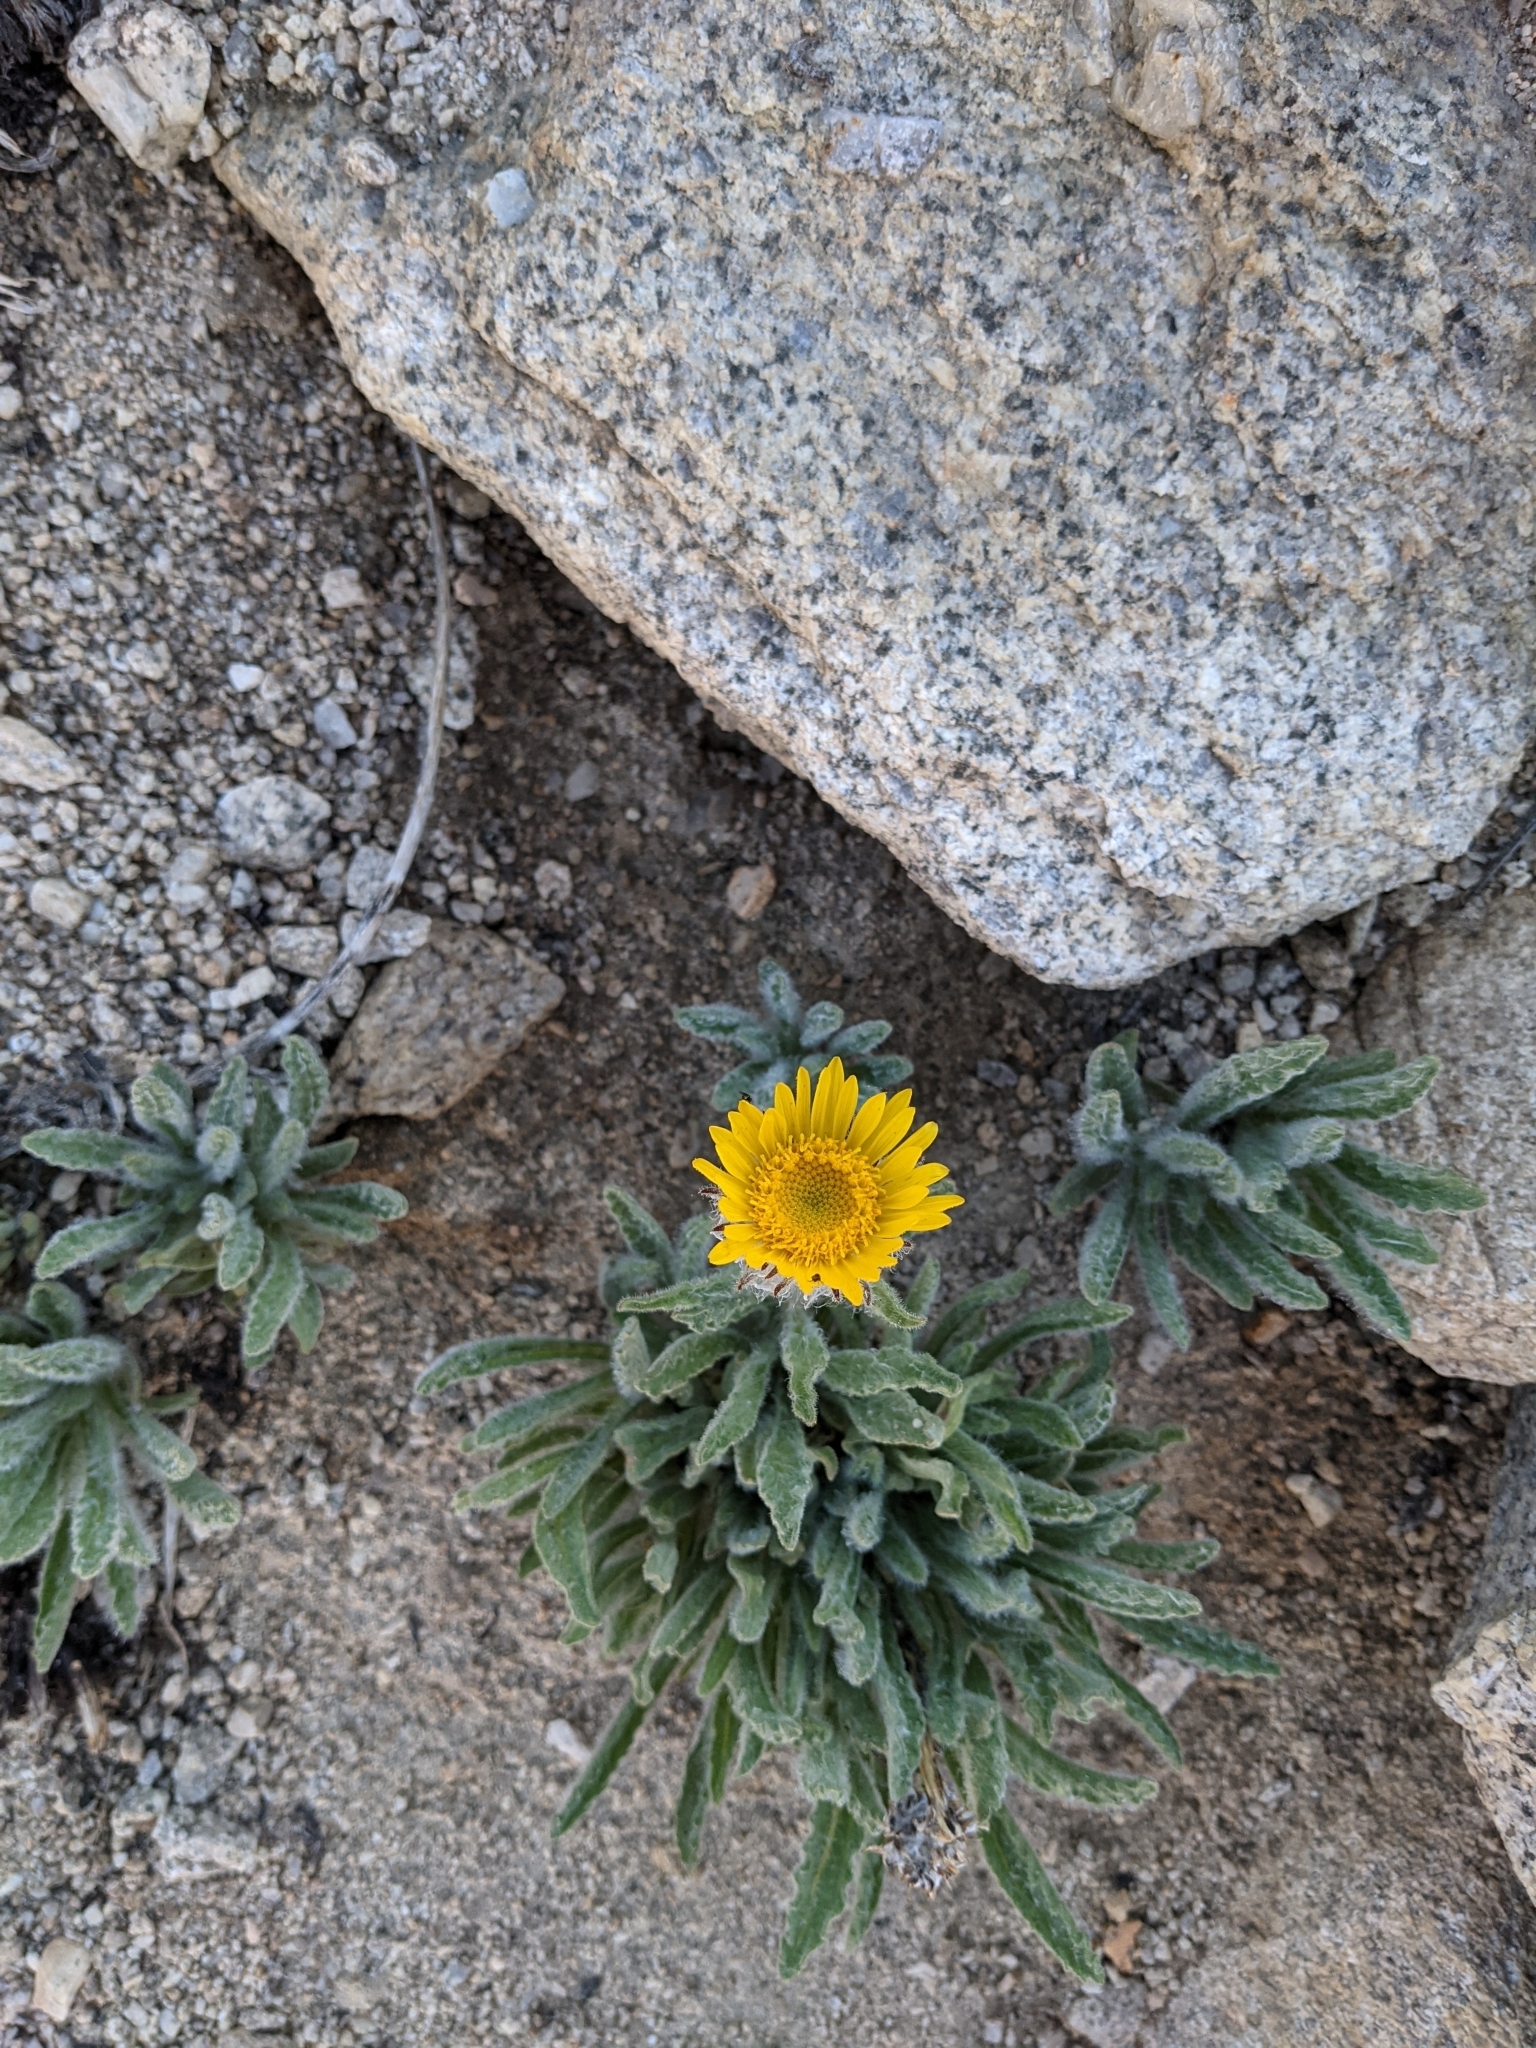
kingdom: Plantae
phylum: Tracheophyta
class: Magnoliopsida
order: Asterales
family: Asteraceae
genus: Hulsea
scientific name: Hulsea algida
